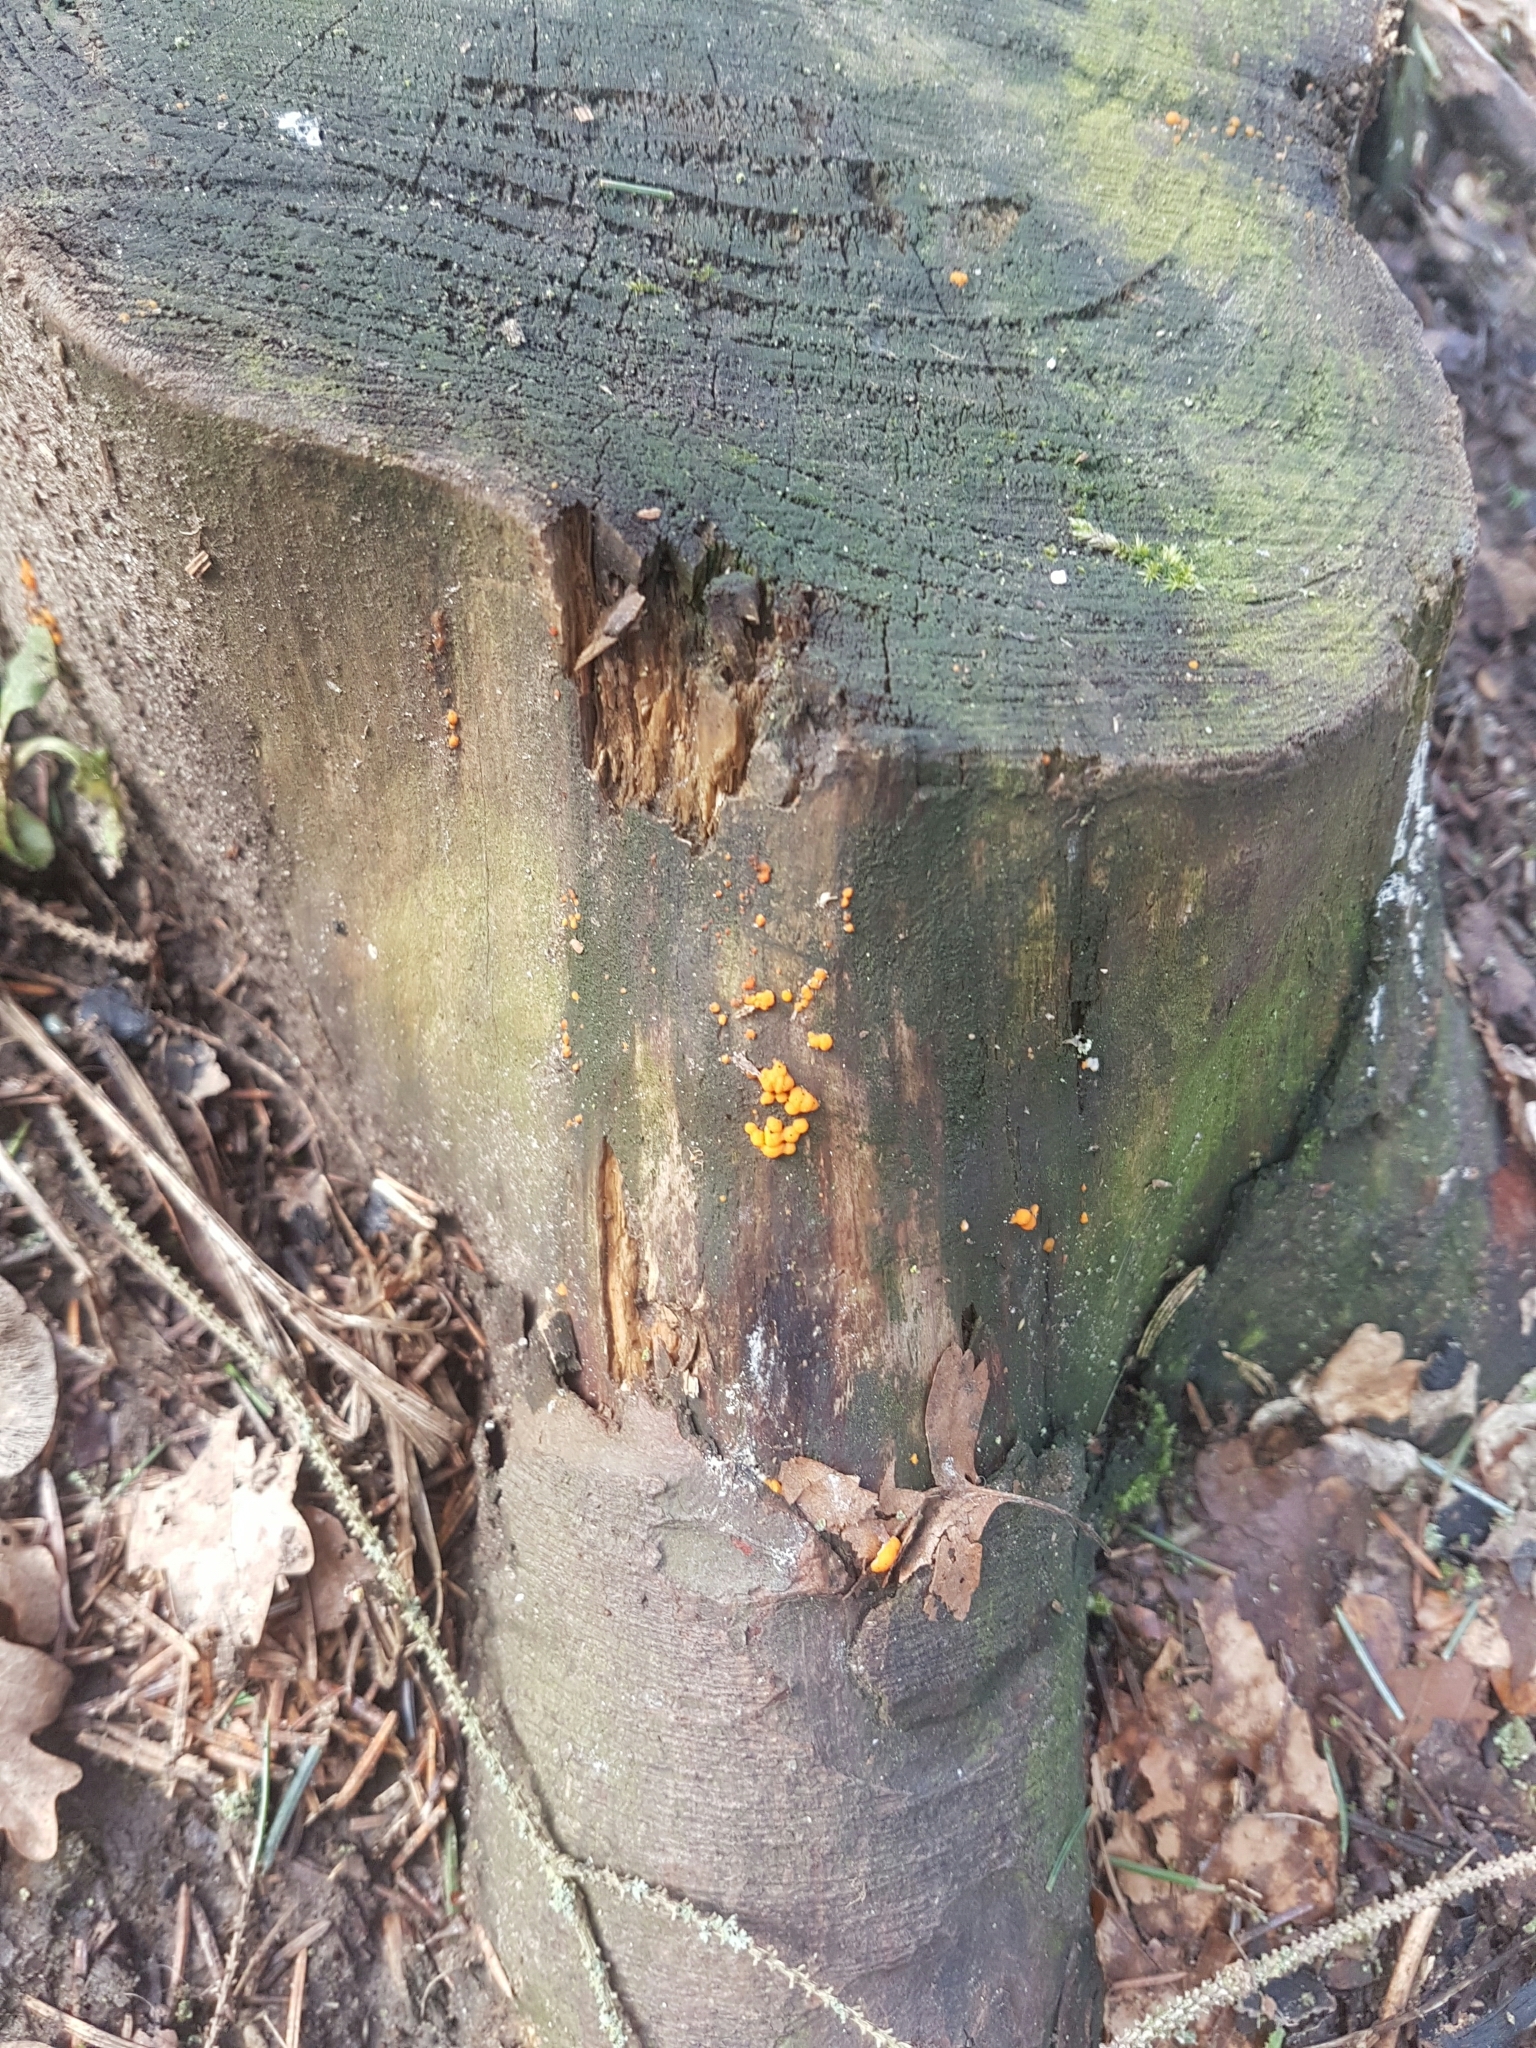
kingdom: Fungi
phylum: Basidiomycota
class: Dacrymycetes
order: Dacrymycetales
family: Dacrymycetaceae
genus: Dacrymyces
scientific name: Dacrymyces stillatus
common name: Common jelly spot
